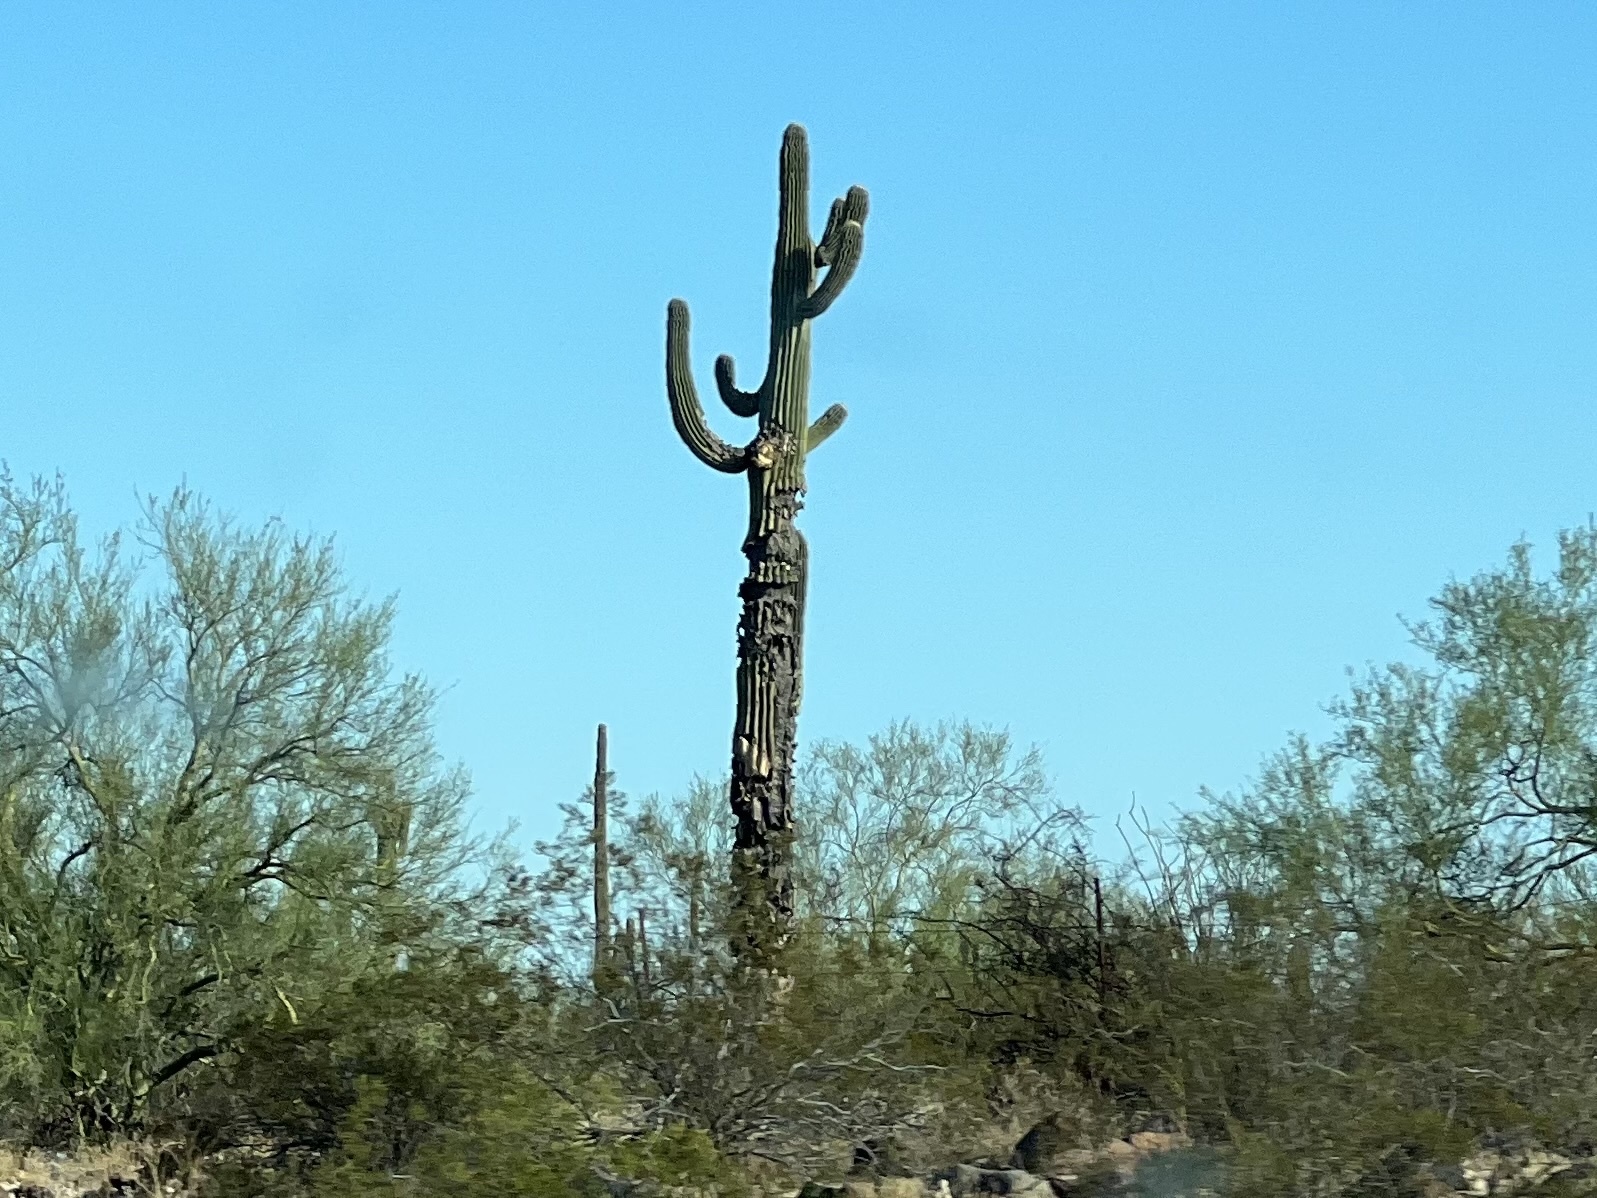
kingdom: Plantae
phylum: Tracheophyta
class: Magnoliopsida
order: Caryophyllales
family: Cactaceae
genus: Carnegiea
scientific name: Carnegiea gigantea
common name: Saguaro
